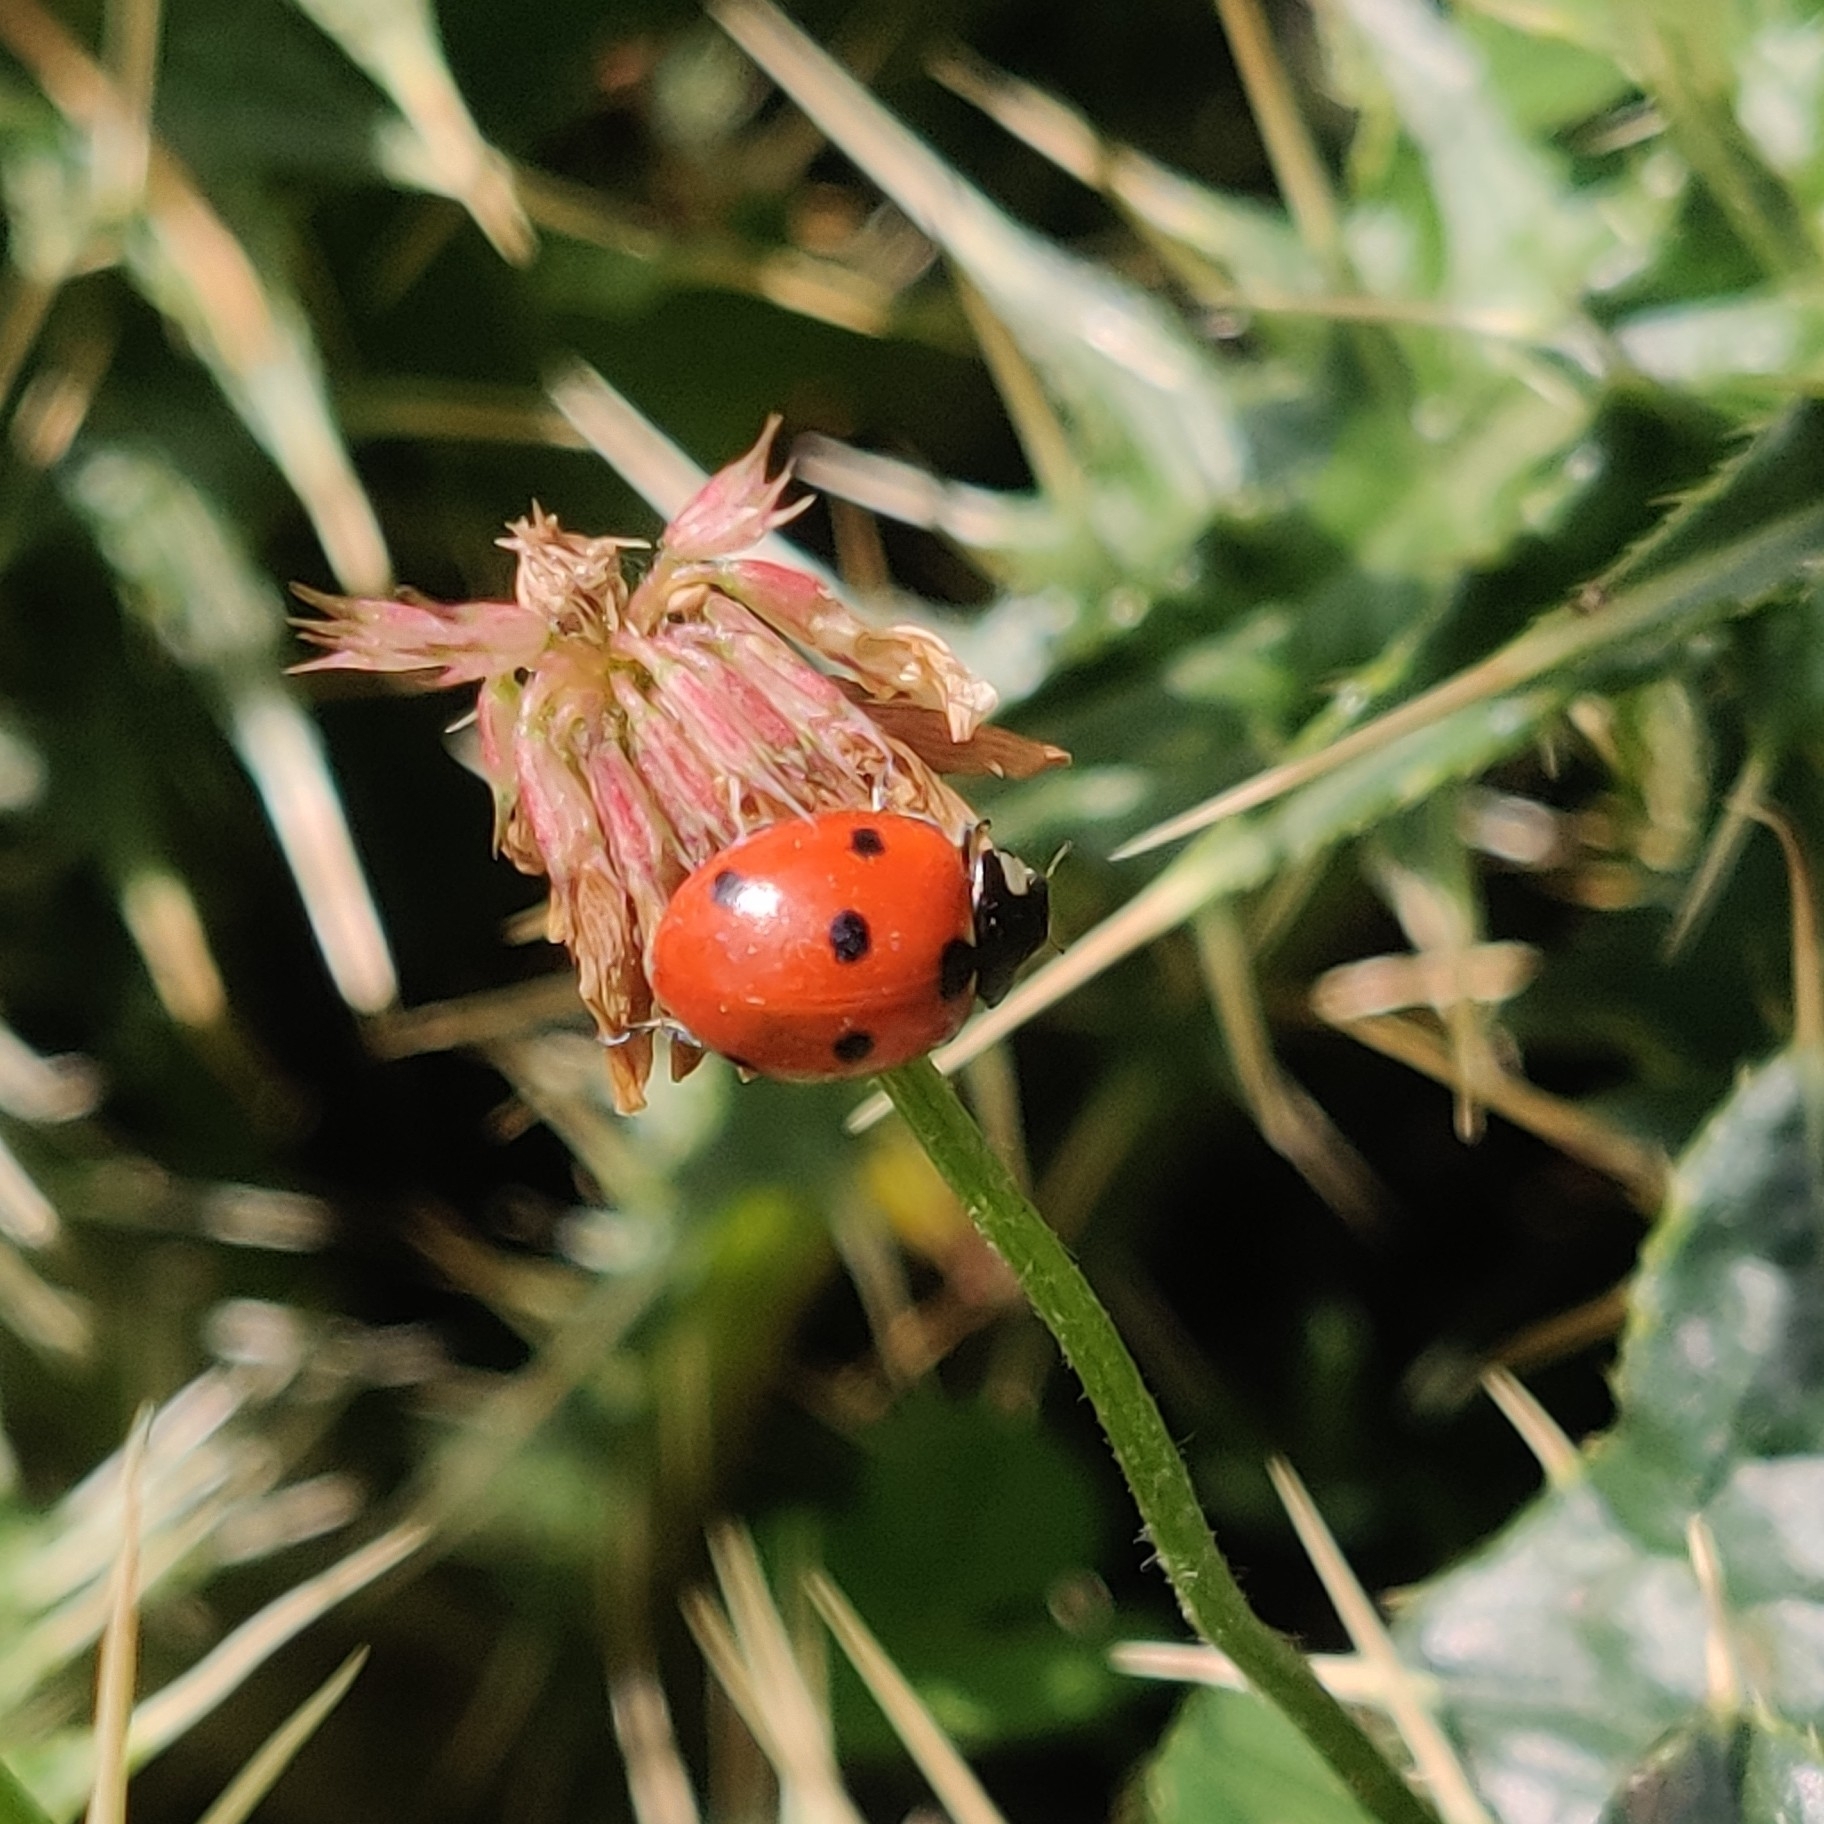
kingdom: Animalia
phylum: Arthropoda
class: Insecta
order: Coleoptera
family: Coccinellidae
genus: Coccinella
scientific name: Coccinella septempunctata
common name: Sevenspotted lady beetle
